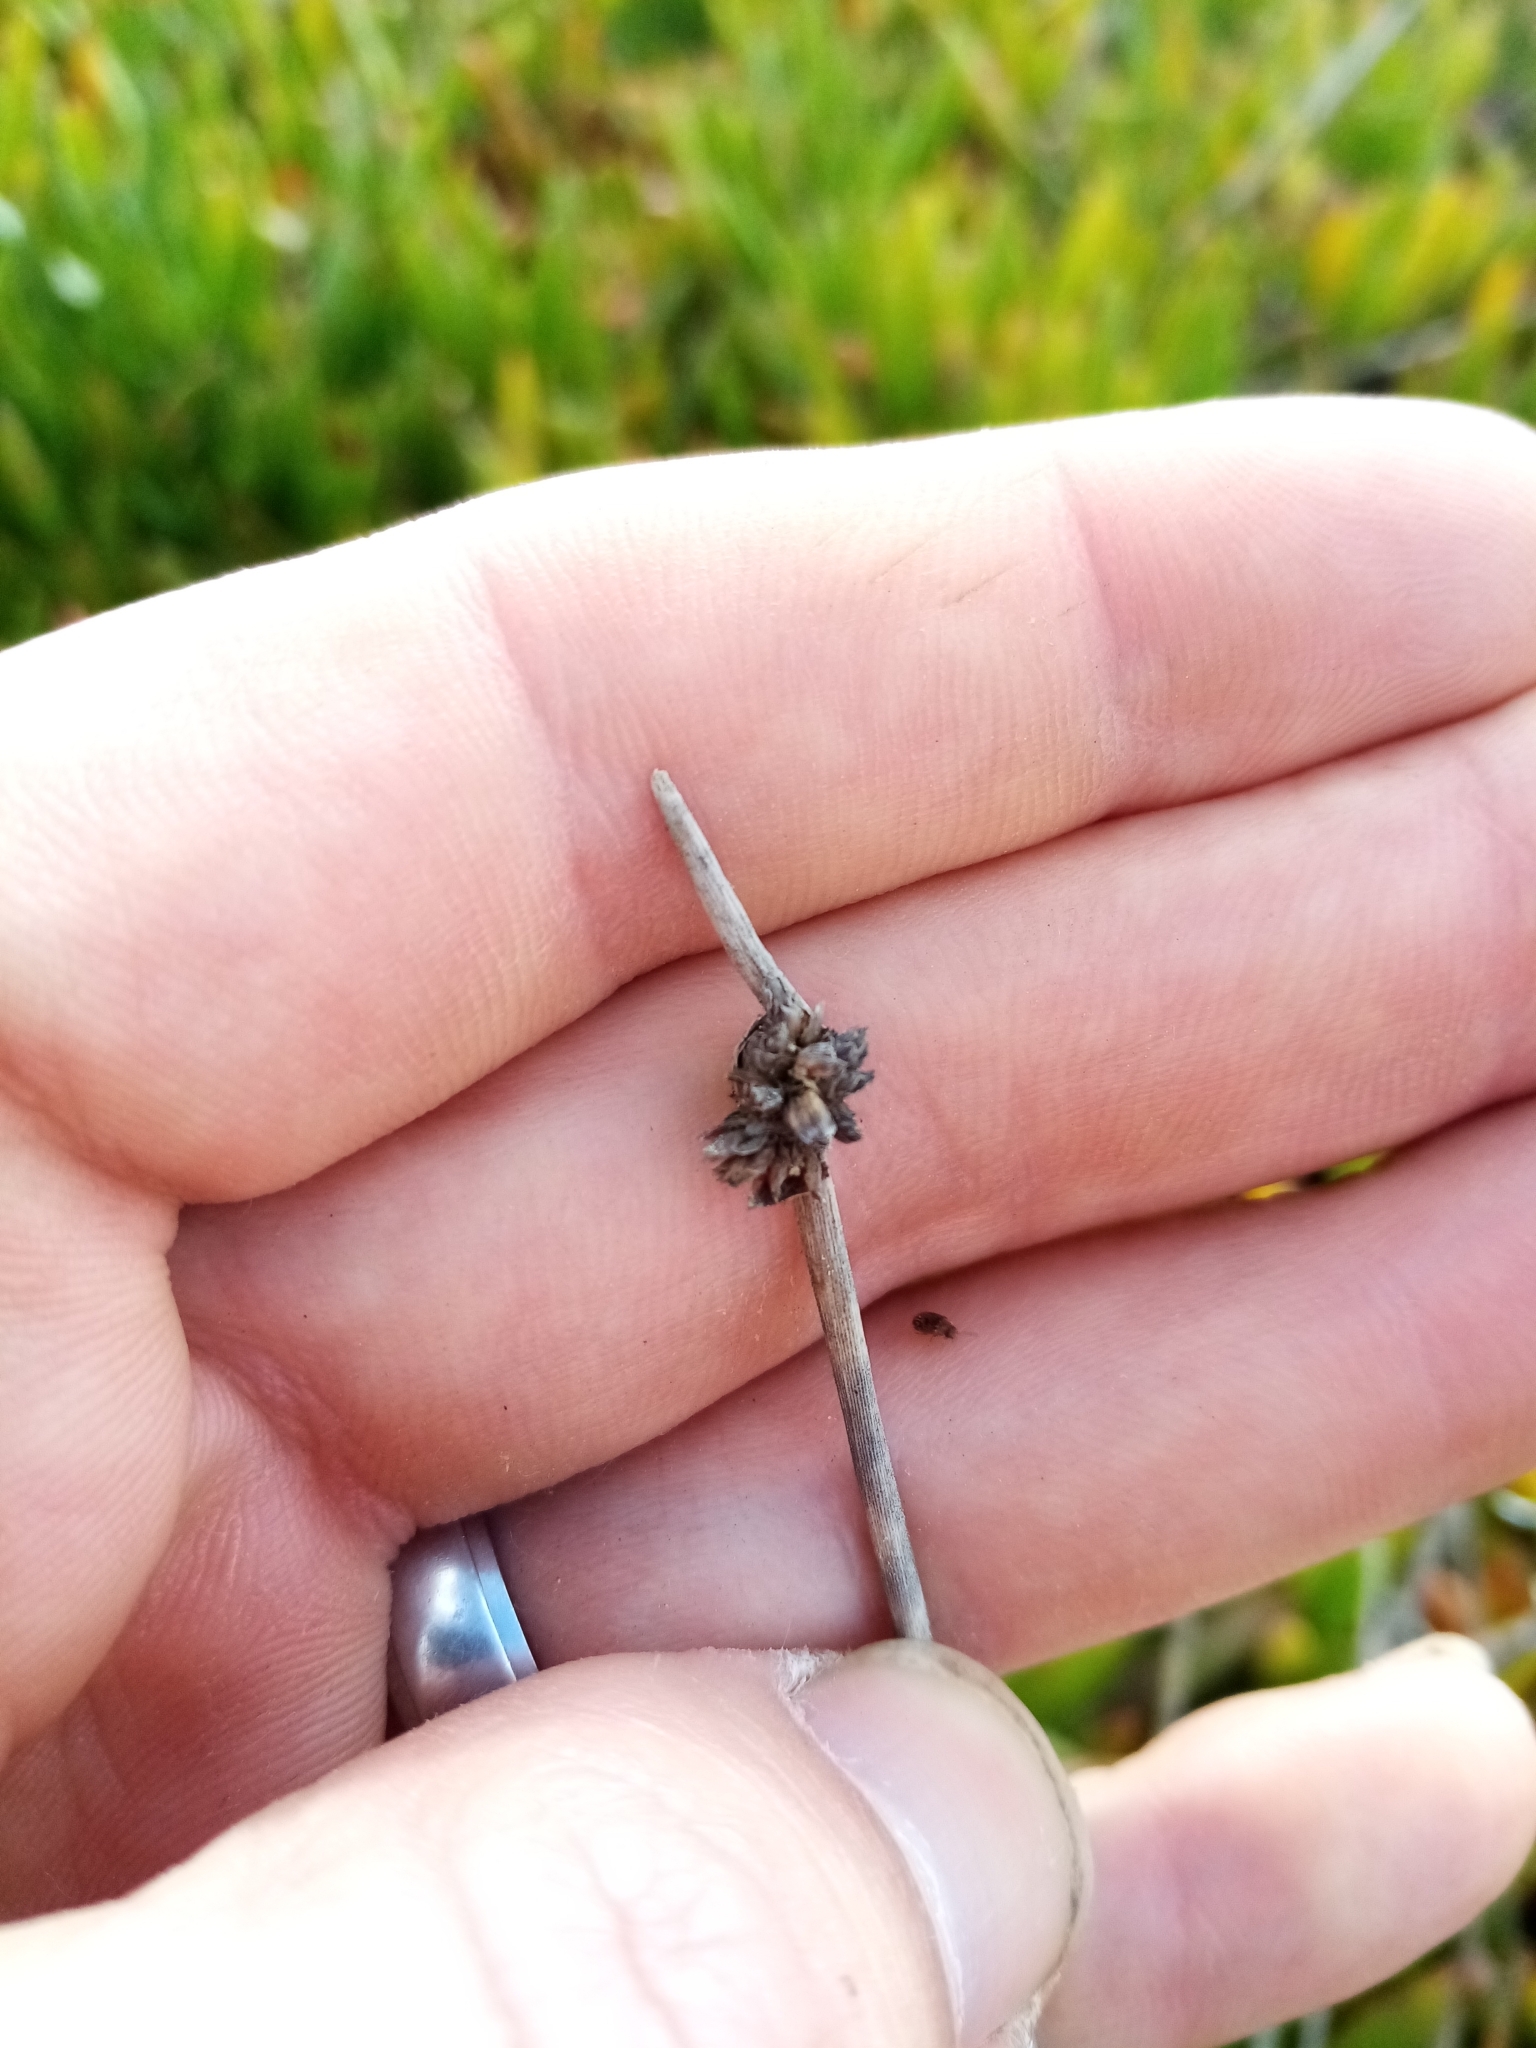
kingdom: Plantae
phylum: Tracheophyta
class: Liliopsida
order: Poales
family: Cyperaceae
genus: Ficinia
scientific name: Ficinia nodosa
